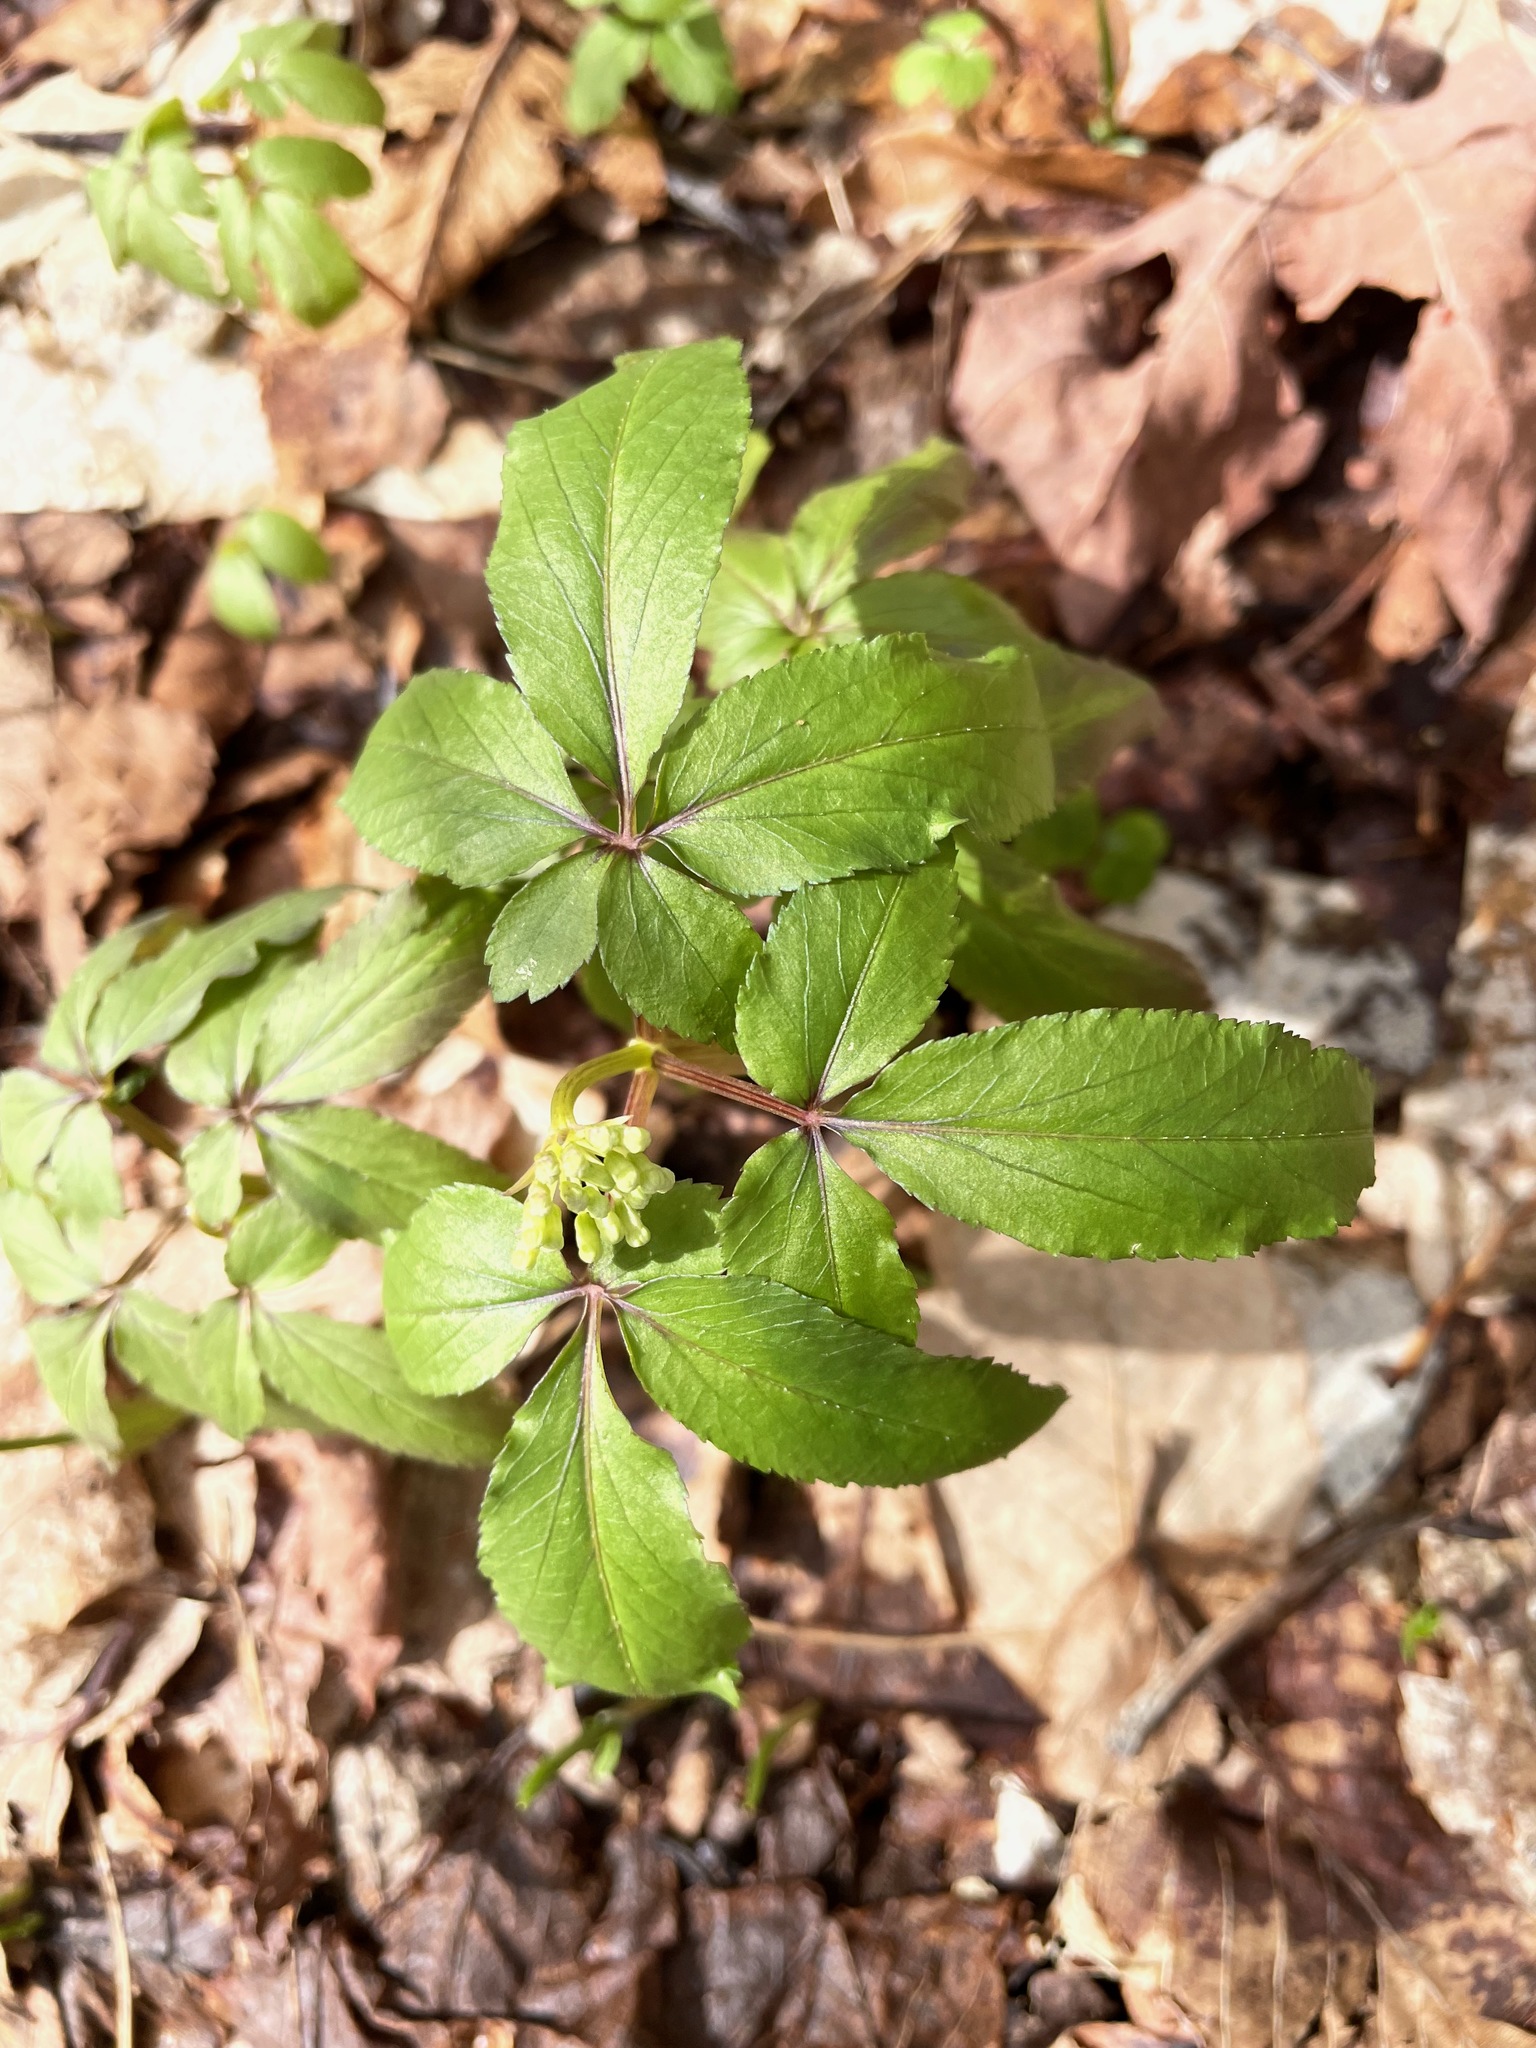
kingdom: Plantae
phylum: Tracheophyta
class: Magnoliopsida
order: Apiales
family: Araliaceae
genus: Panax
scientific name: Panax trifolius
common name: Dwarf ginseng
